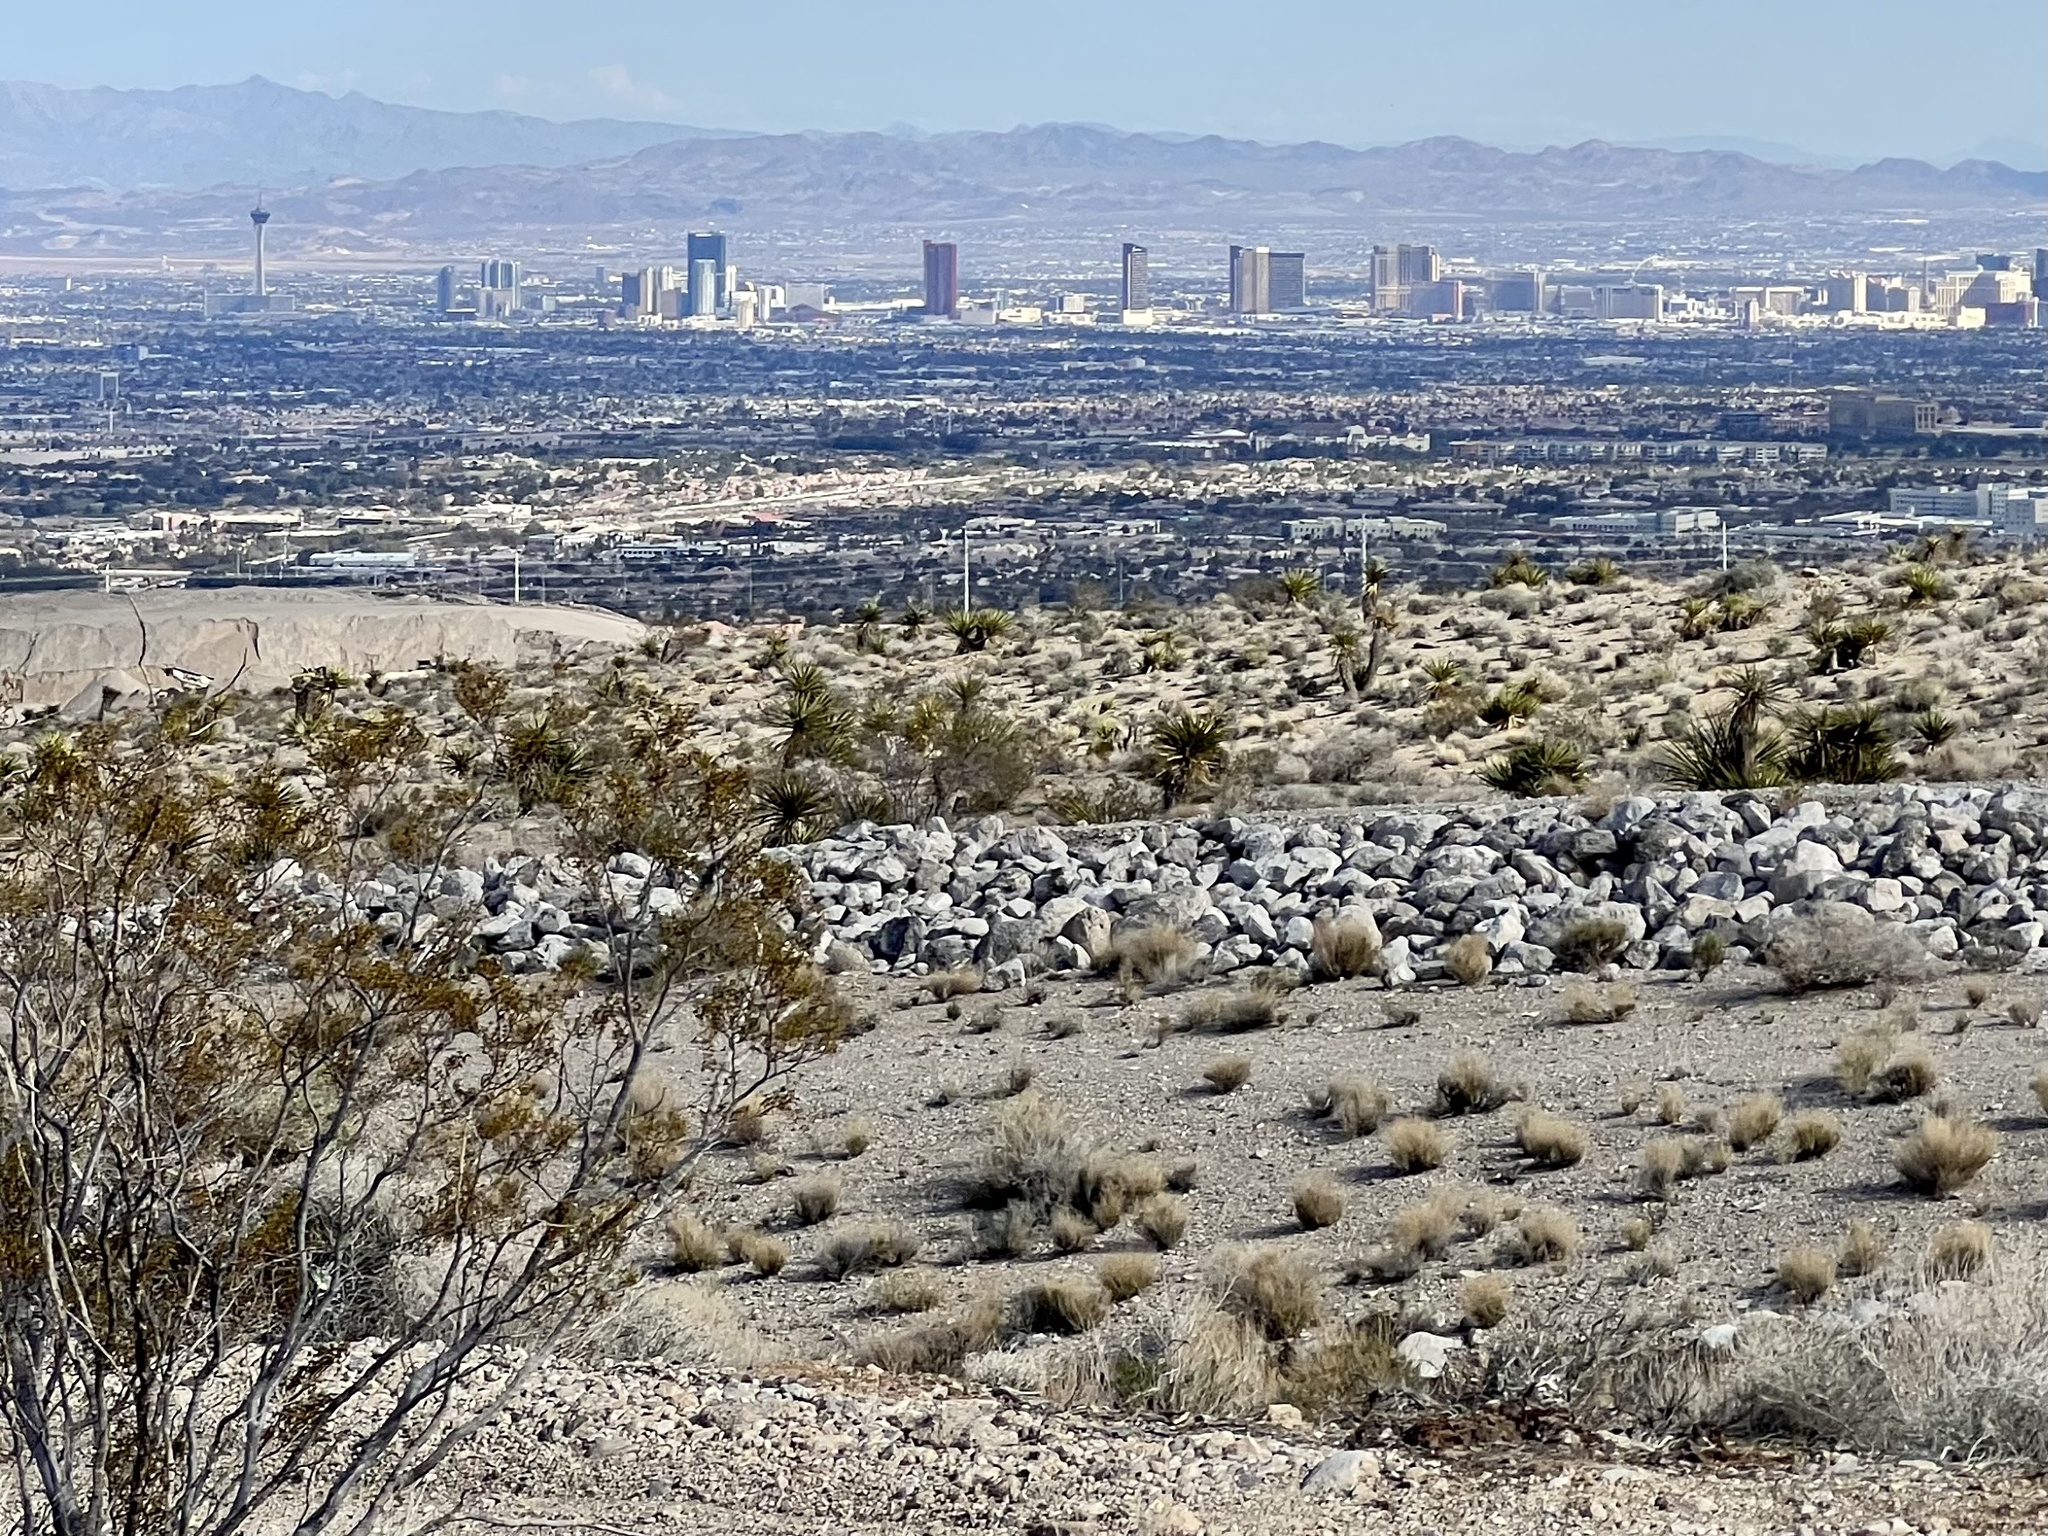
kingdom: Plantae
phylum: Tracheophyta
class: Magnoliopsida
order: Zygophyllales
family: Zygophyllaceae
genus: Larrea
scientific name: Larrea tridentata
